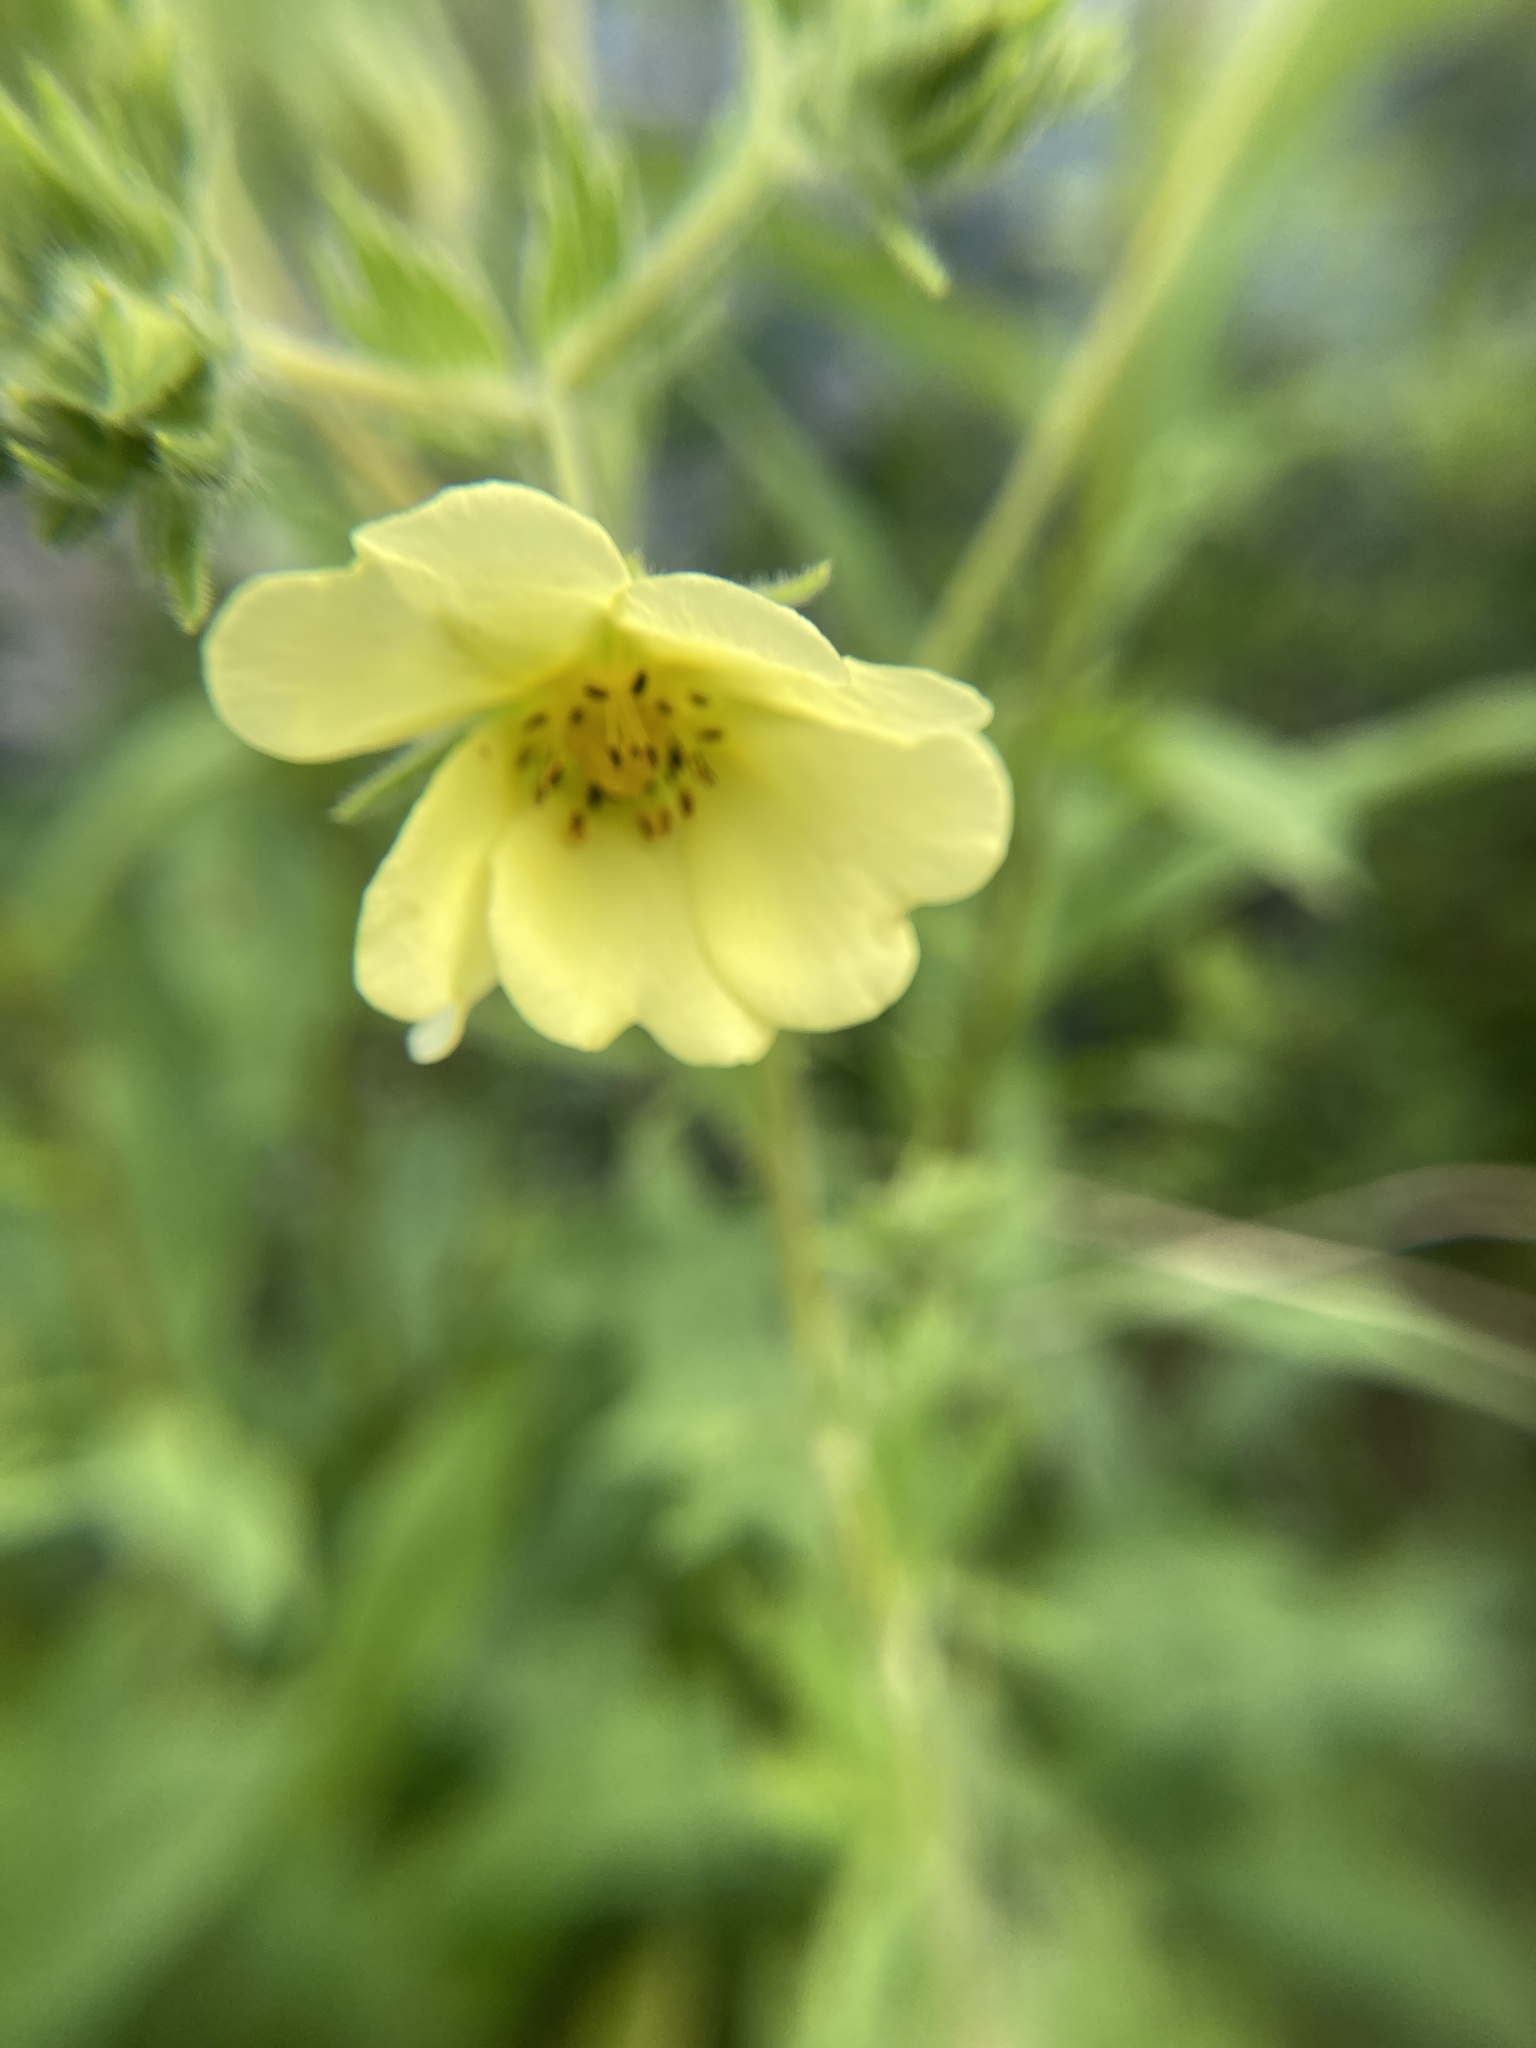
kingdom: Plantae
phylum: Tracheophyta
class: Magnoliopsida
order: Rosales
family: Rosaceae
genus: Potentilla
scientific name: Potentilla recta
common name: Sulphur cinquefoil
